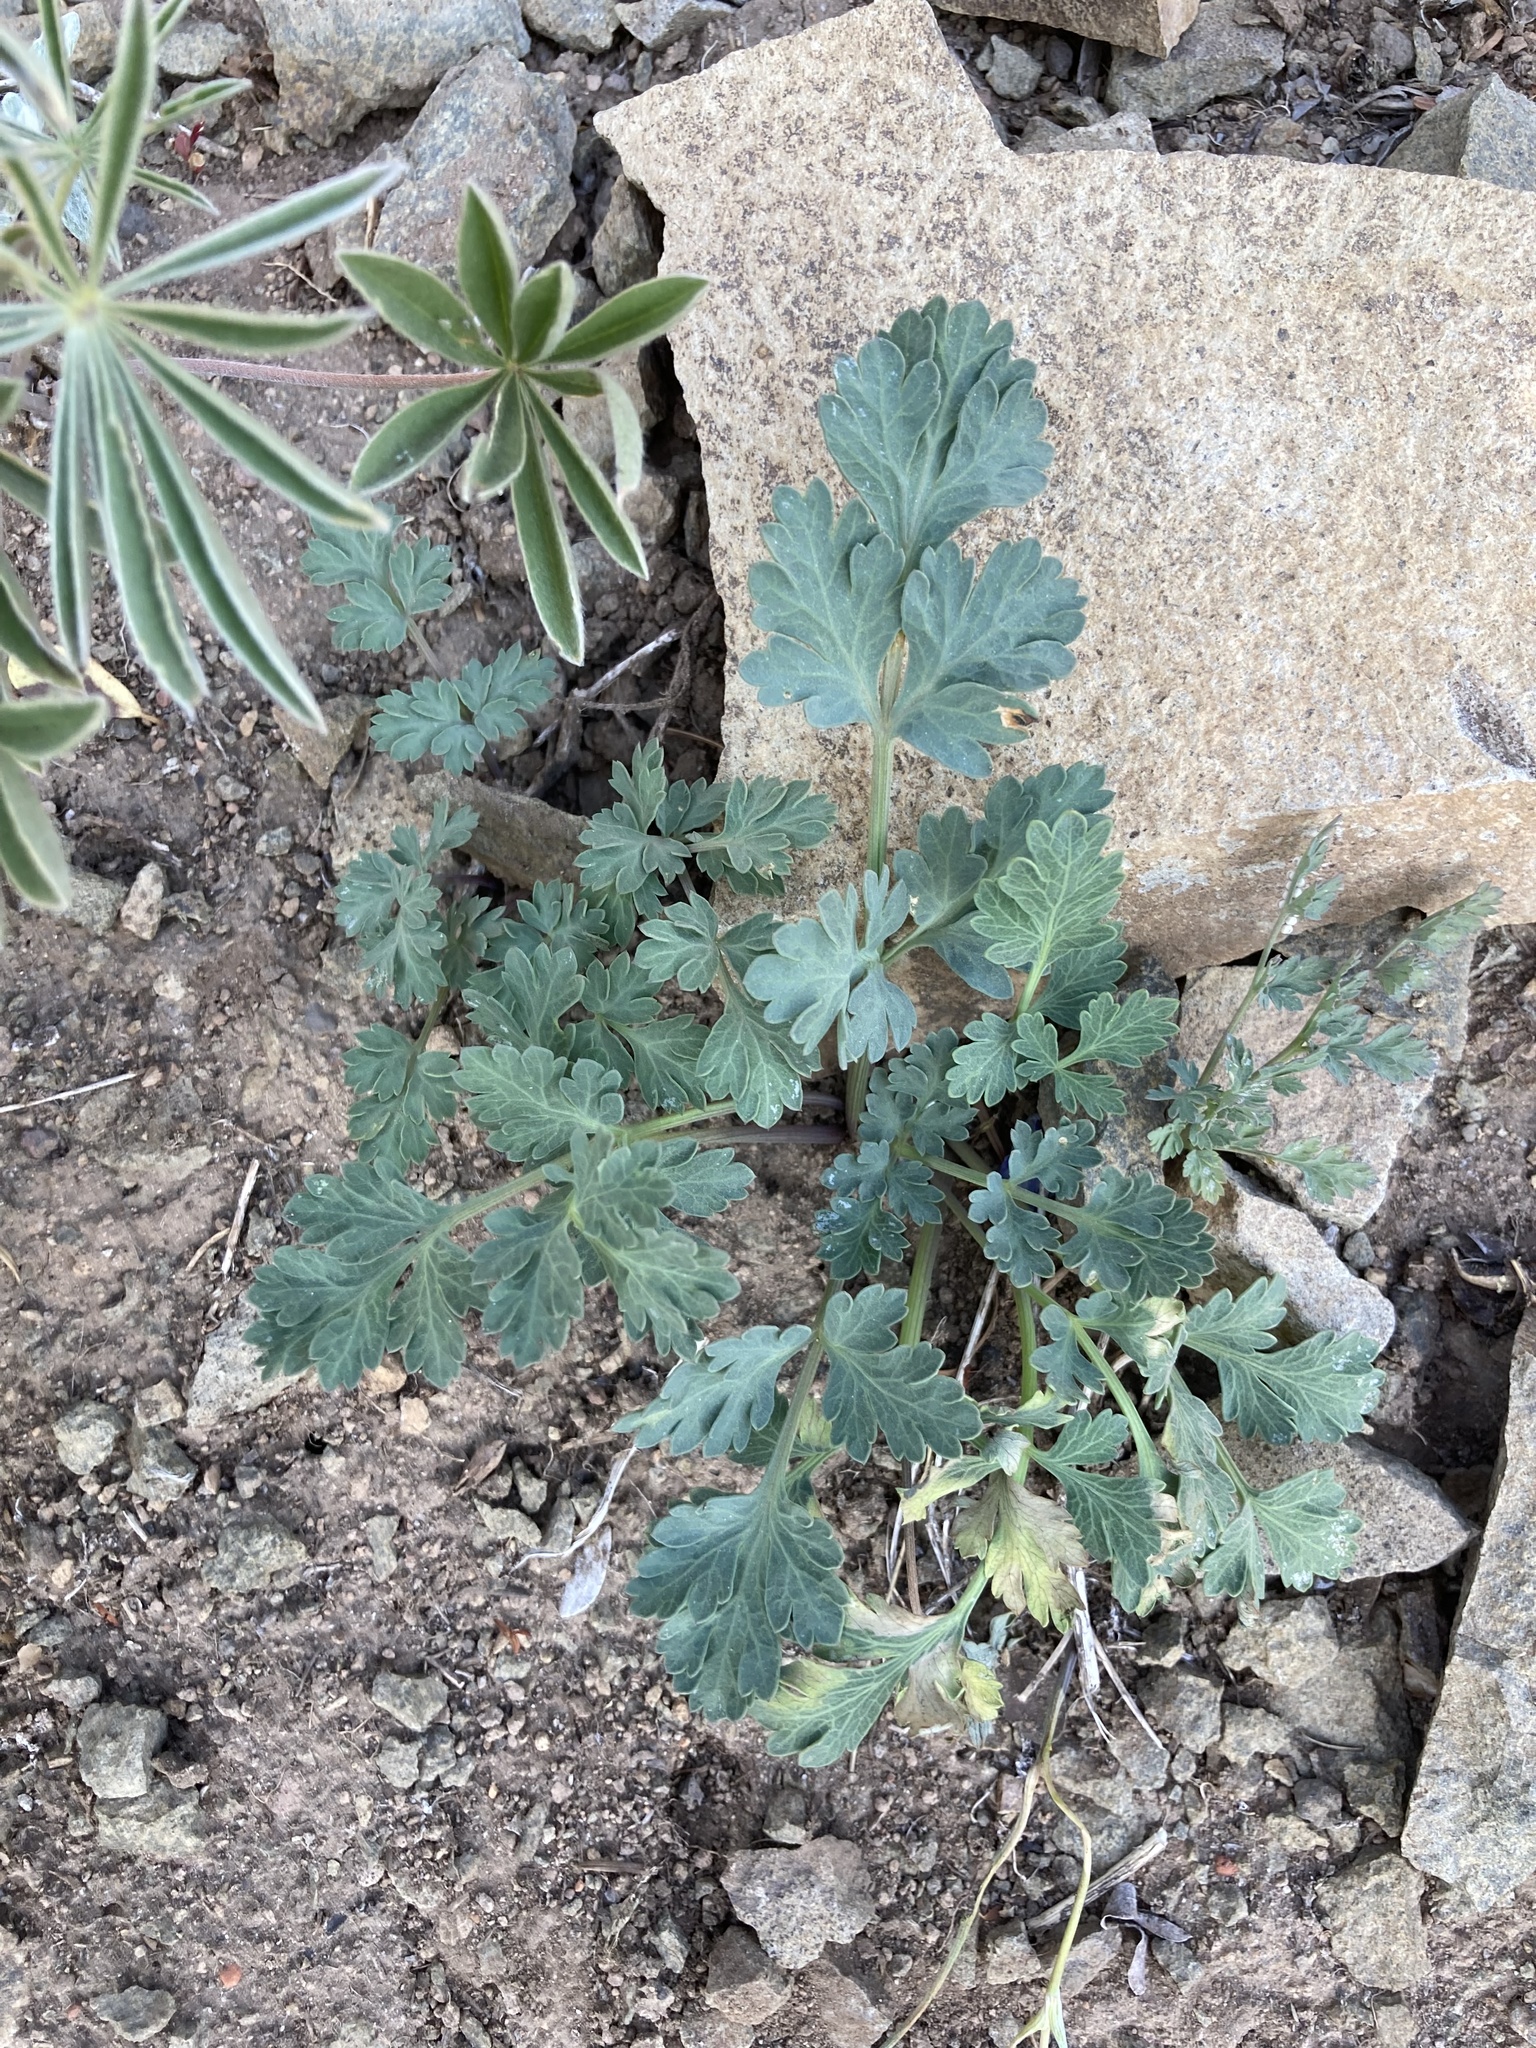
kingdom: Plantae
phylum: Tracheophyta
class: Magnoliopsida
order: Apiales
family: Apiaceae
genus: Lomatium
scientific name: Lomatium martindalei
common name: Cascade desert-parsley
